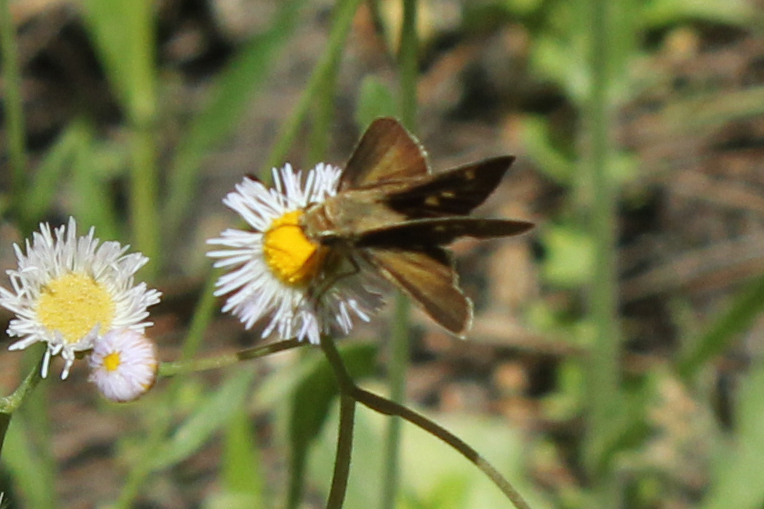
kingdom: Animalia
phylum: Arthropoda
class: Insecta
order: Lepidoptera
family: Hesperiidae
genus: Polites
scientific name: Polites vibex
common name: Whirlabout
